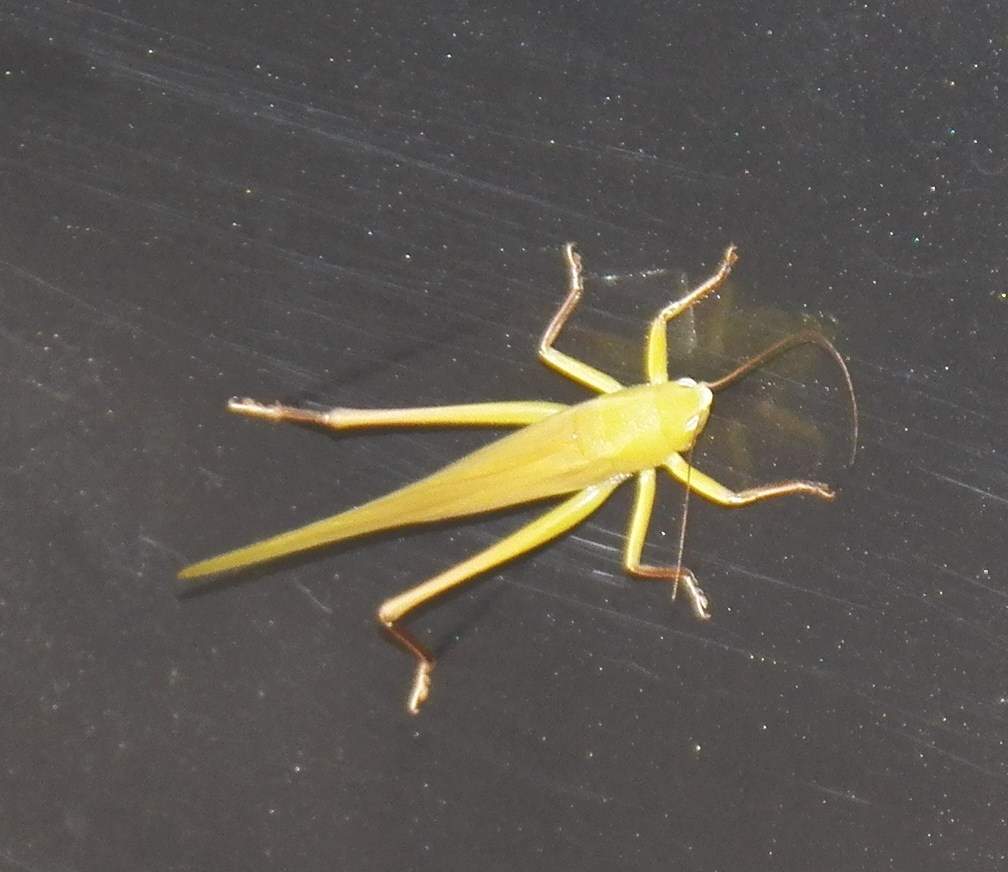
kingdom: Animalia
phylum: Arthropoda
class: Insecta
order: Orthoptera
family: Tettigoniidae
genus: Neoconocephalus
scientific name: Neoconocephalus triops
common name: Broad-tipped conehead
